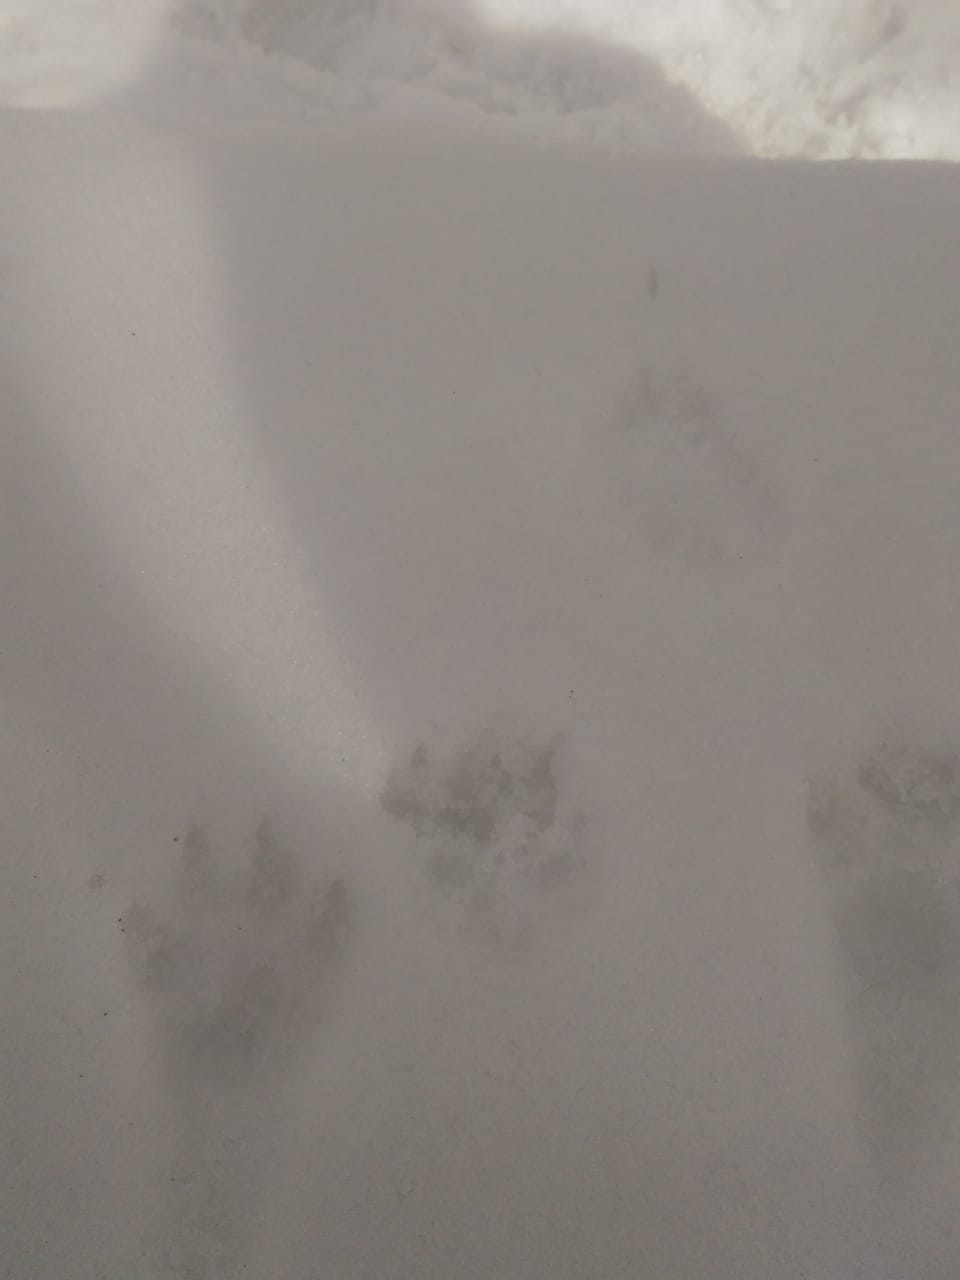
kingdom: Animalia
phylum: Chordata
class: Mammalia
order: Carnivora
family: Canidae
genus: Nyctereutes
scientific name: Nyctereutes procyonoides
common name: Raccoon dog
